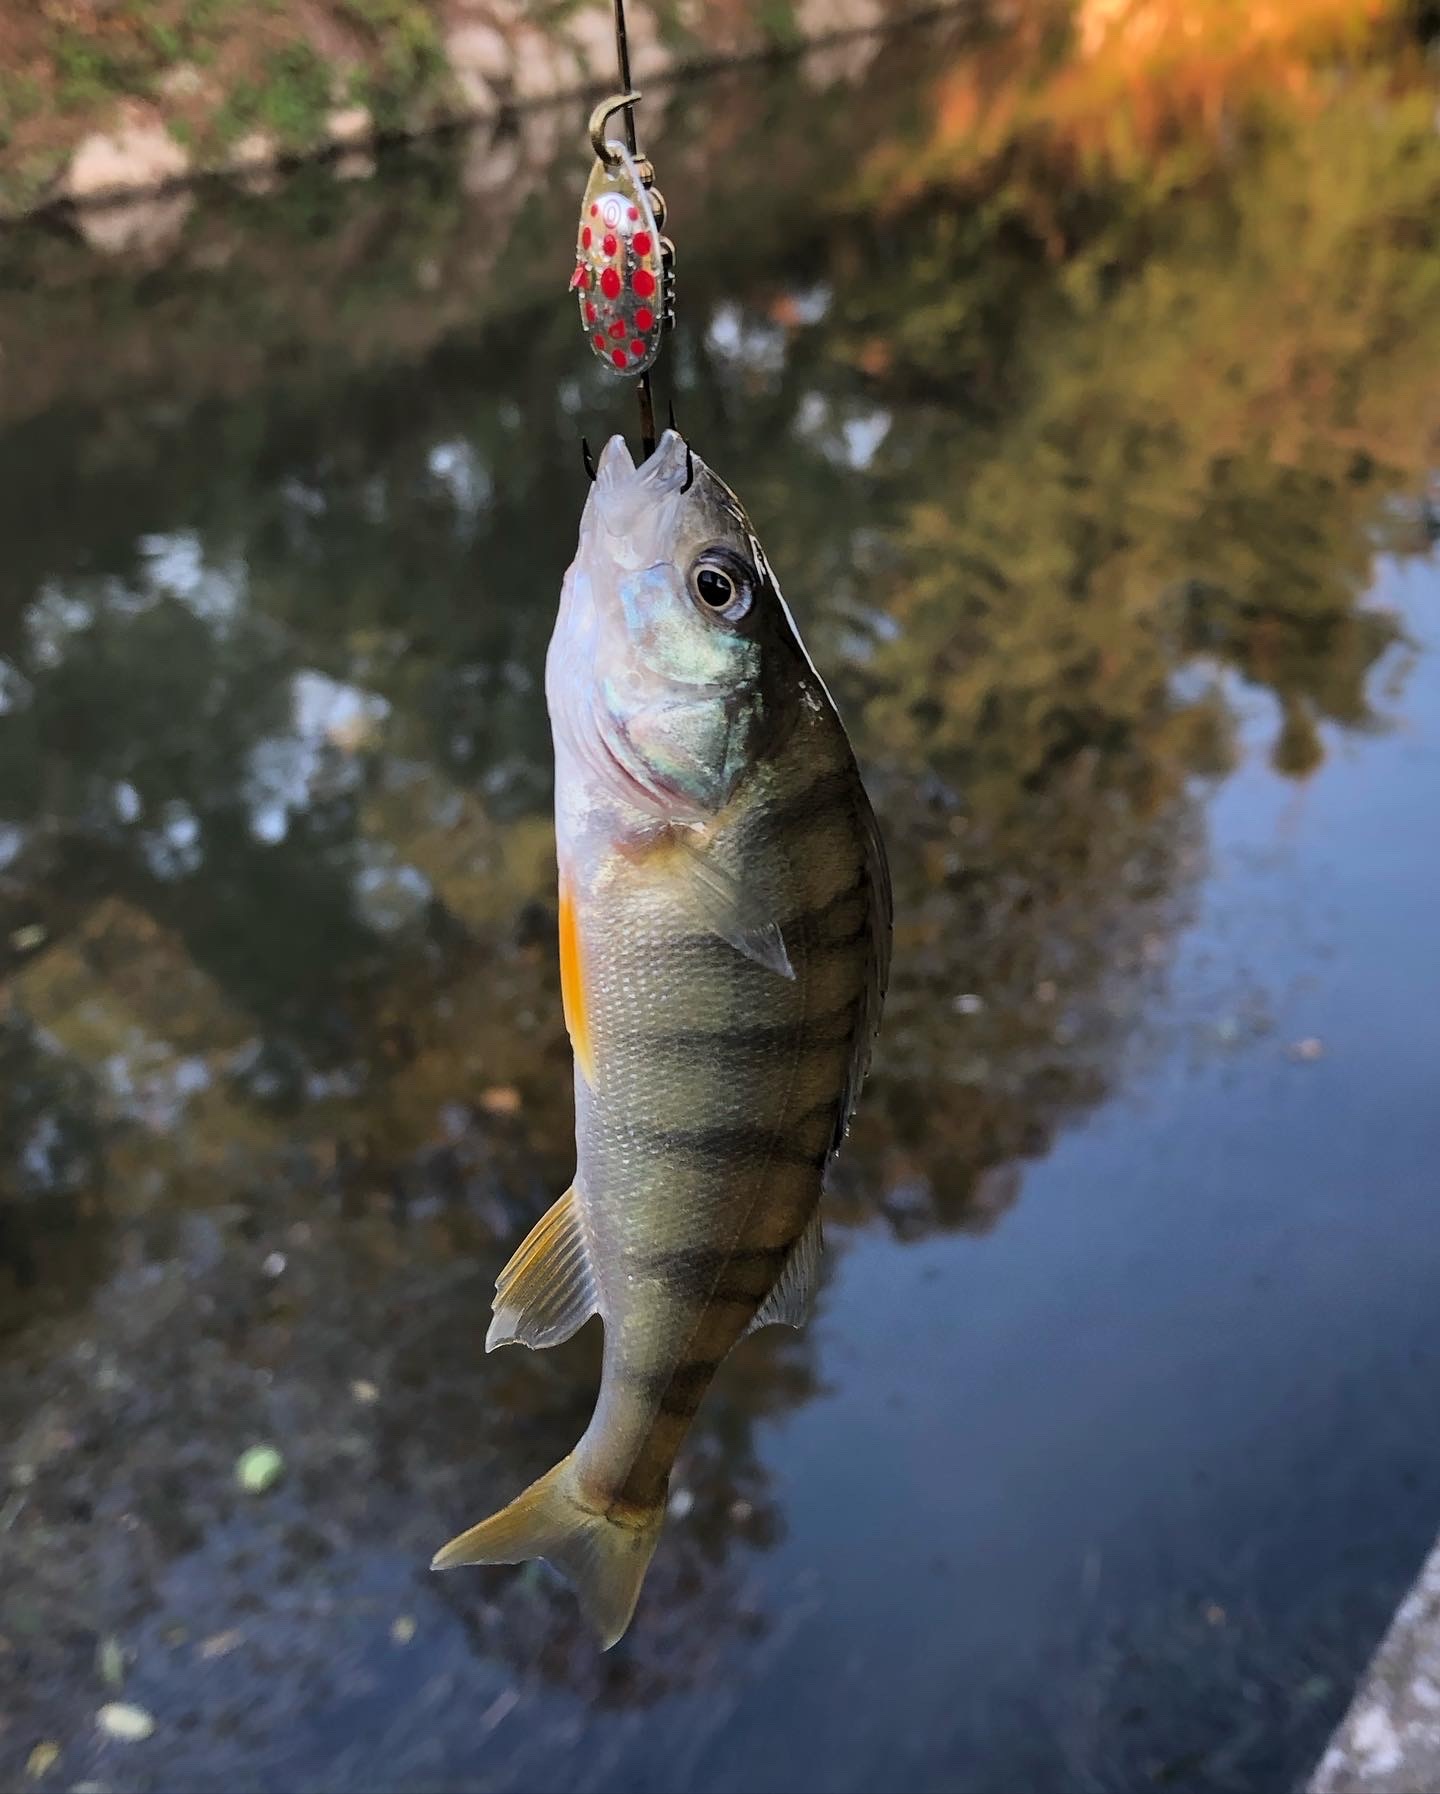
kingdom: Animalia
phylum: Chordata
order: Perciformes
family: Percidae
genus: Perca
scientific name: Perca fluviatilis
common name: Perch
